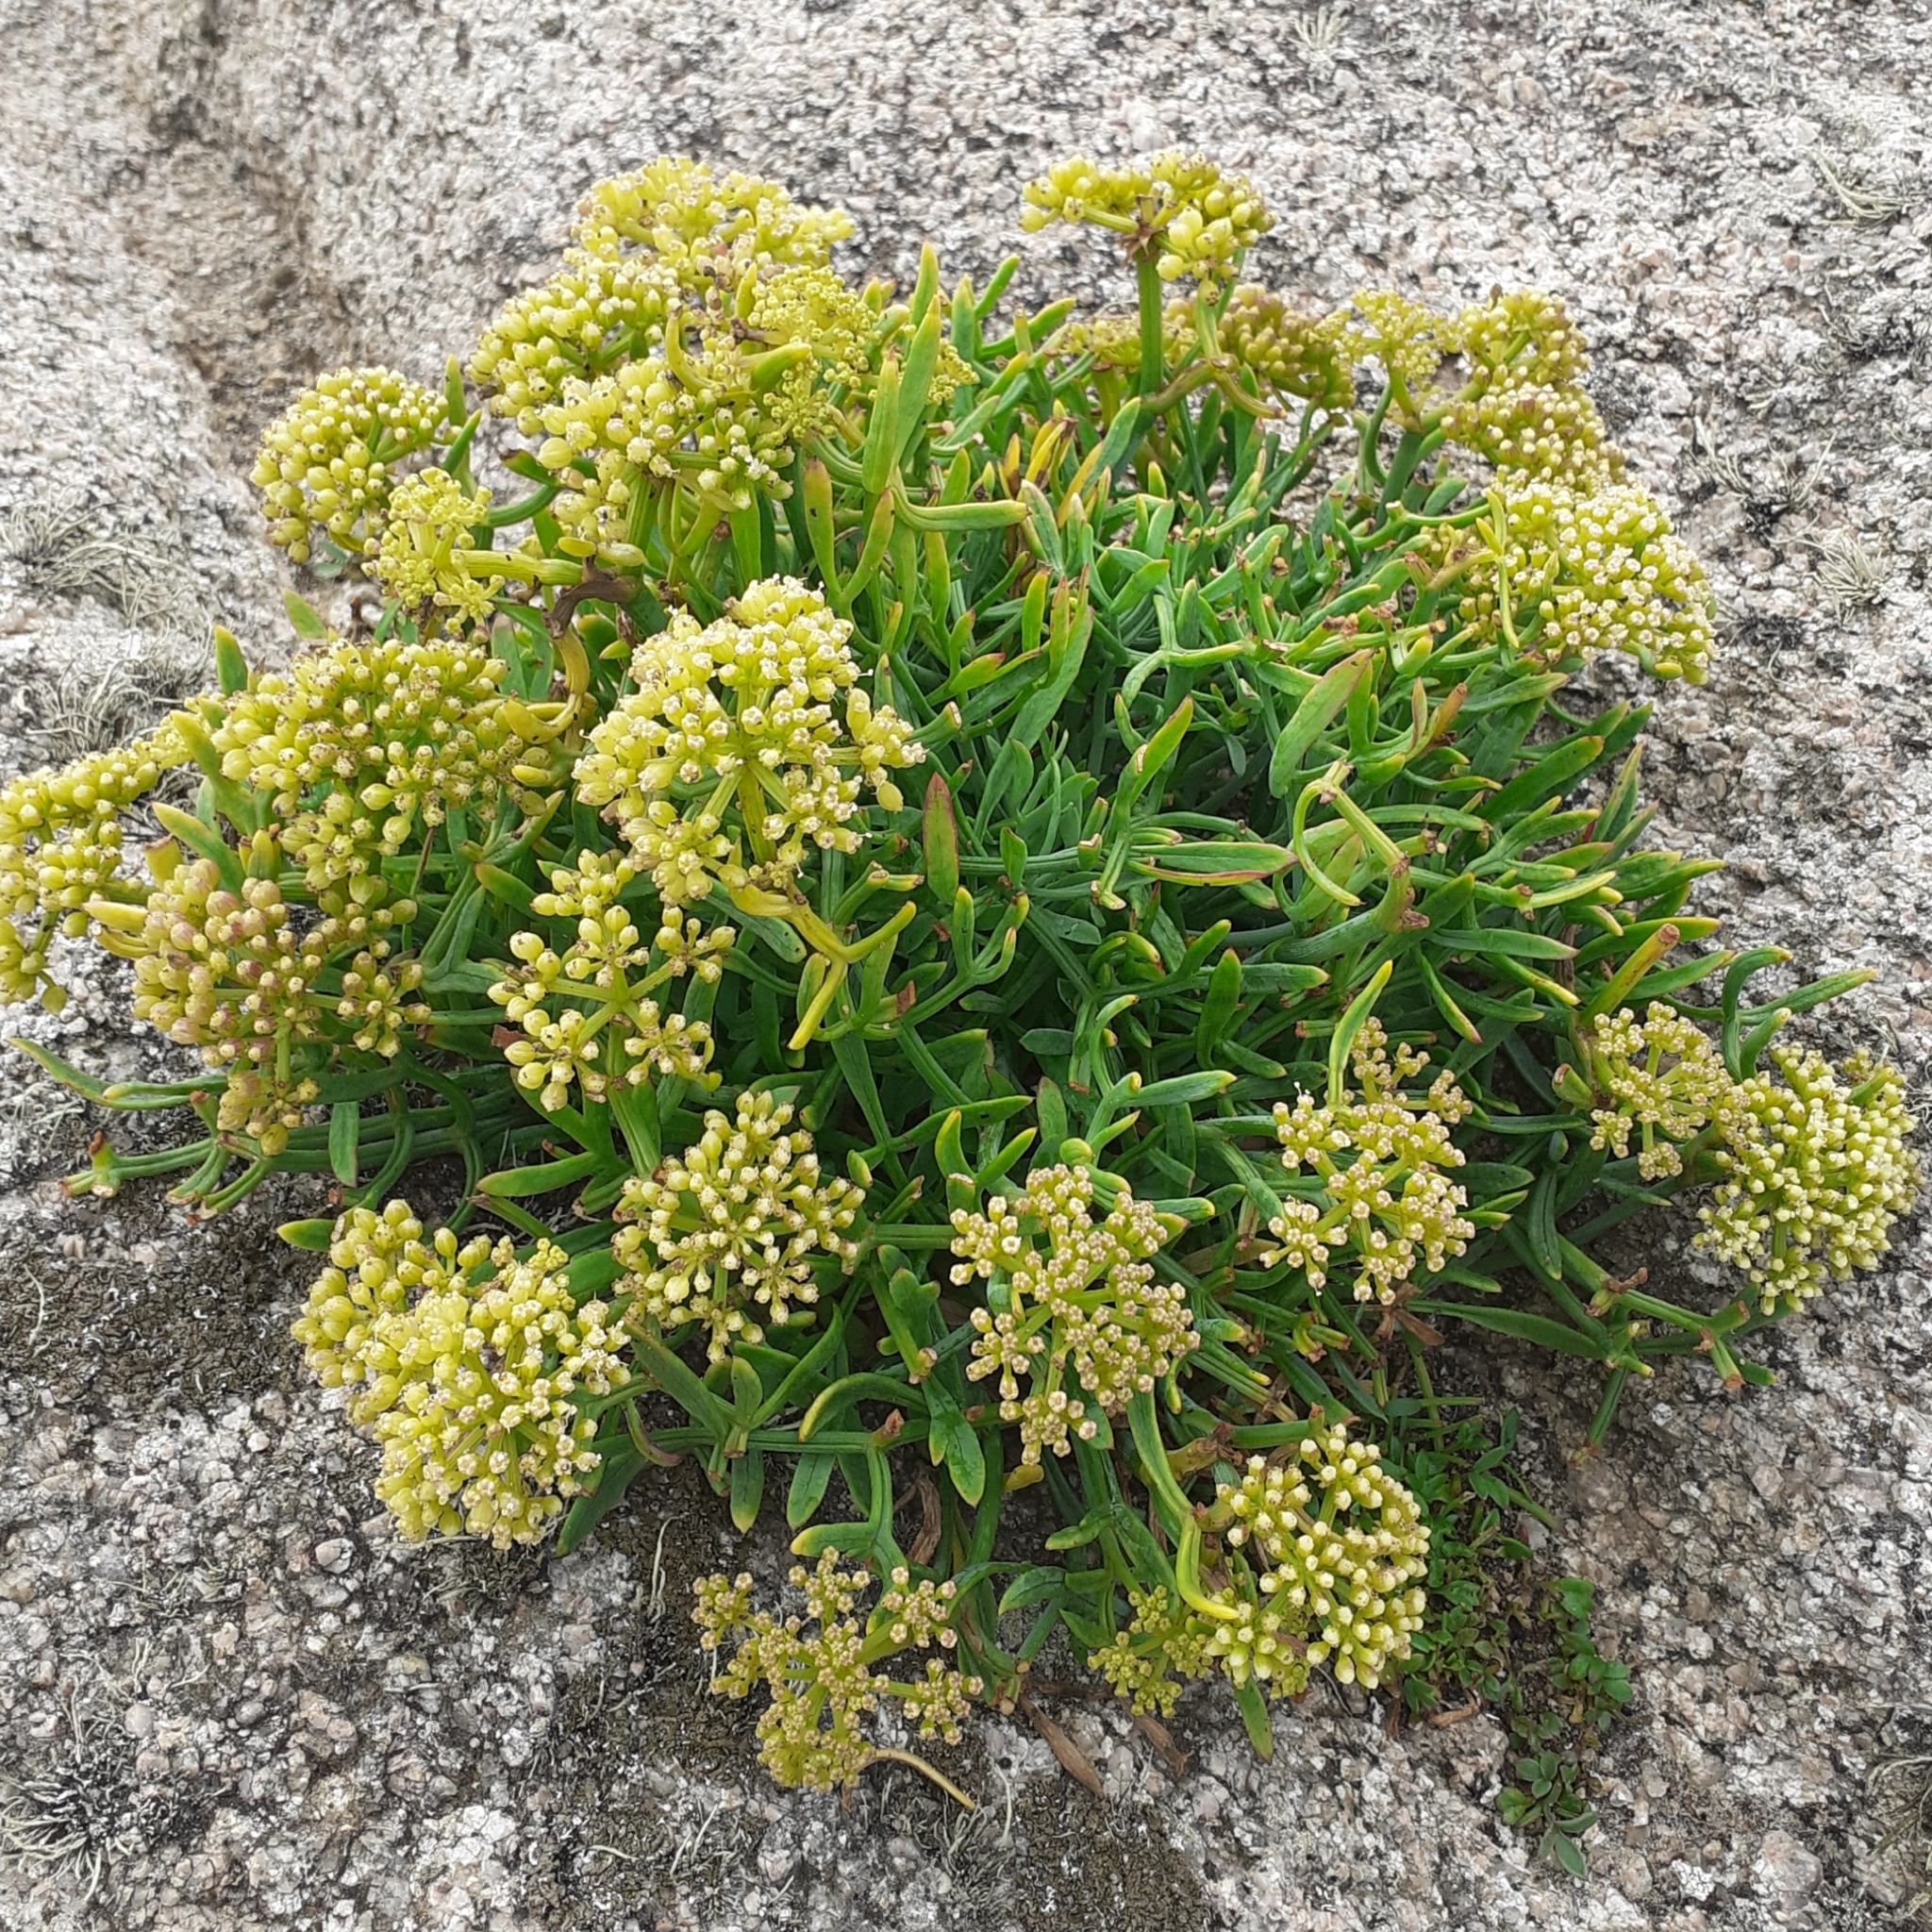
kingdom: Plantae
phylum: Tracheophyta
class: Magnoliopsida
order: Apiales
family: Apiaceae
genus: Crithmum
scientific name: Crithmum maritimum
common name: Rock samphire
